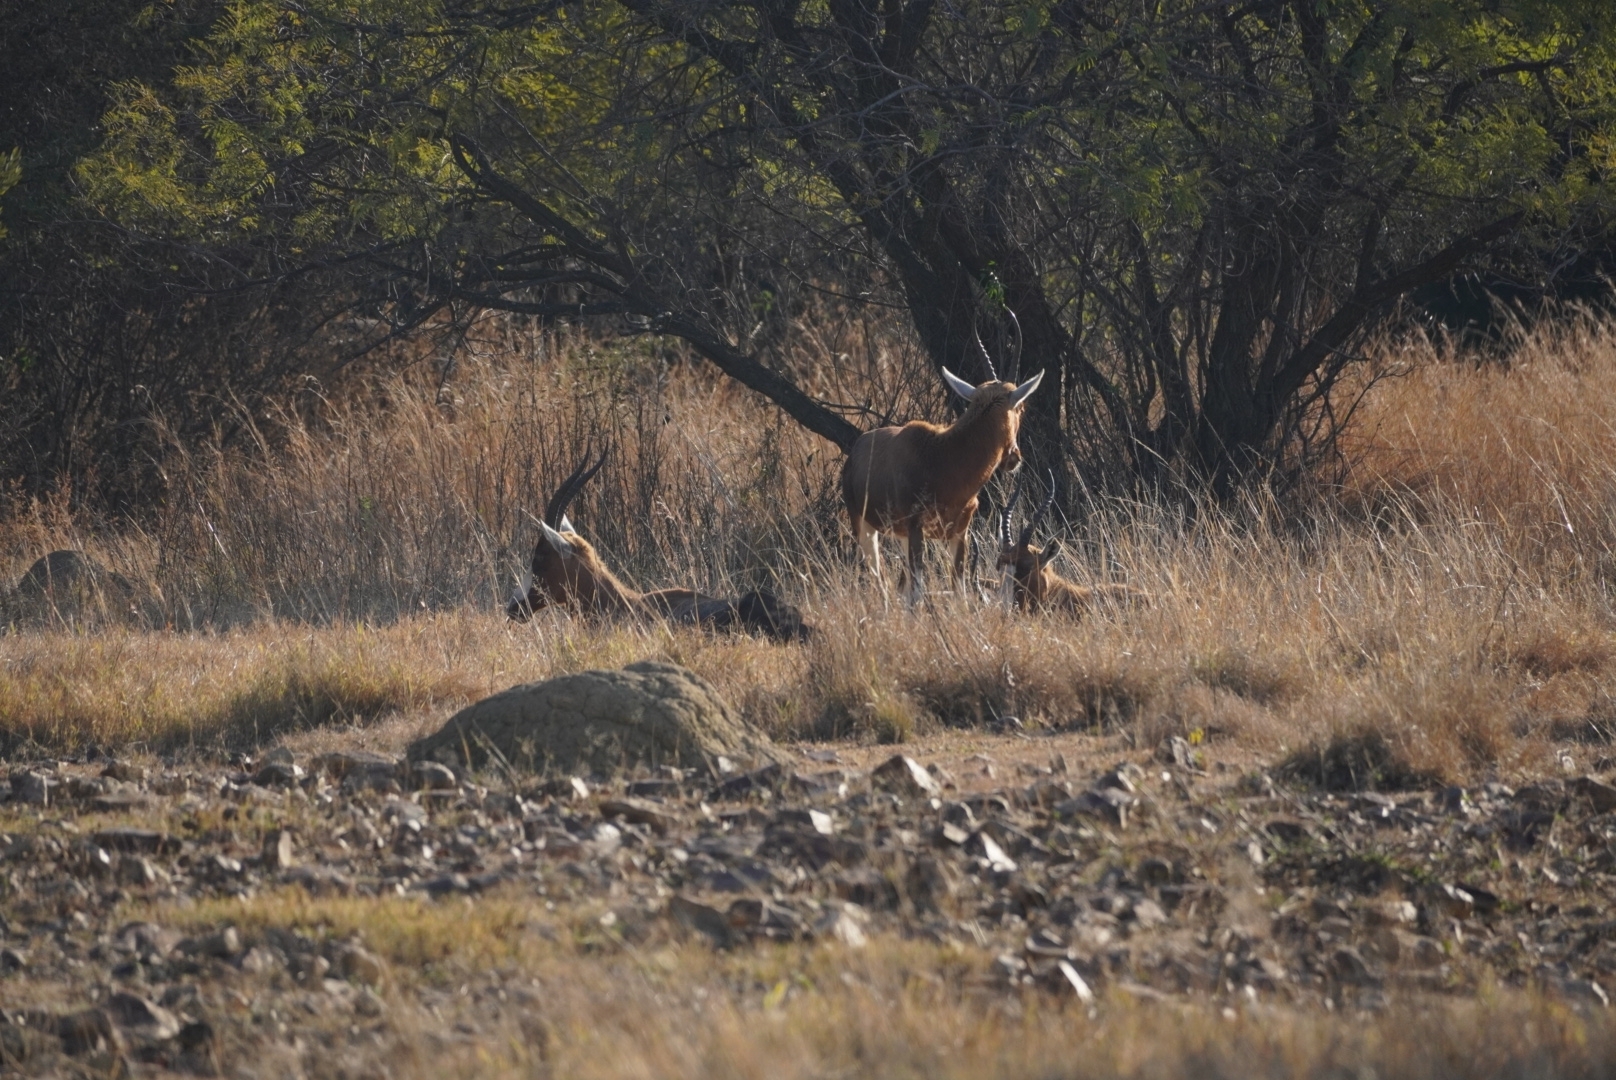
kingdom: Animalia
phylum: Chordata
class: Mammalia
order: Artiodactyla
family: Bovidae
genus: Damaliscus
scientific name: Damaliscus pygargus
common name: Bontebok
